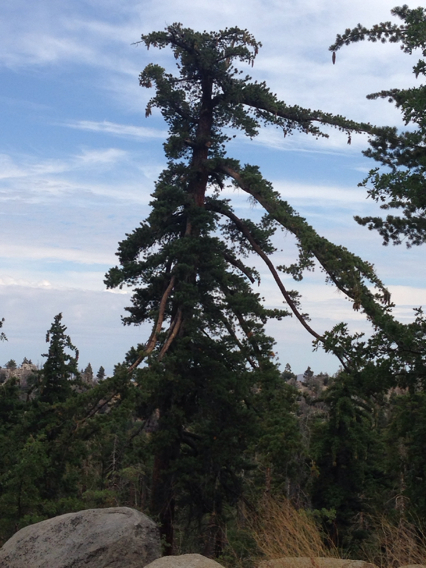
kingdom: Plantae
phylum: Tracheophyta
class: Pinopsida
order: Pinales
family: Pinaceae
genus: Pinus
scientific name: Pinus lambertiana
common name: Sugar pine
